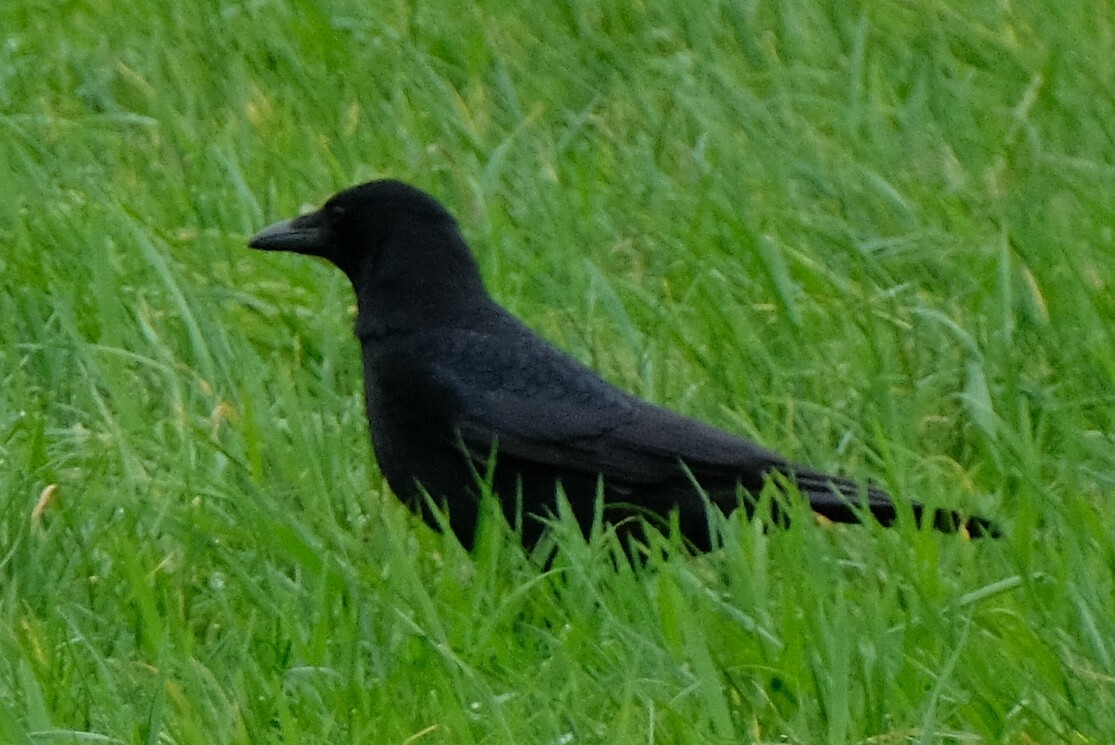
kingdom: Animalia
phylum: Chordata
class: Aves
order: Passeriformes
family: Corvidae
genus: Corvus
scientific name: Corvus corone
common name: Carrion crow
